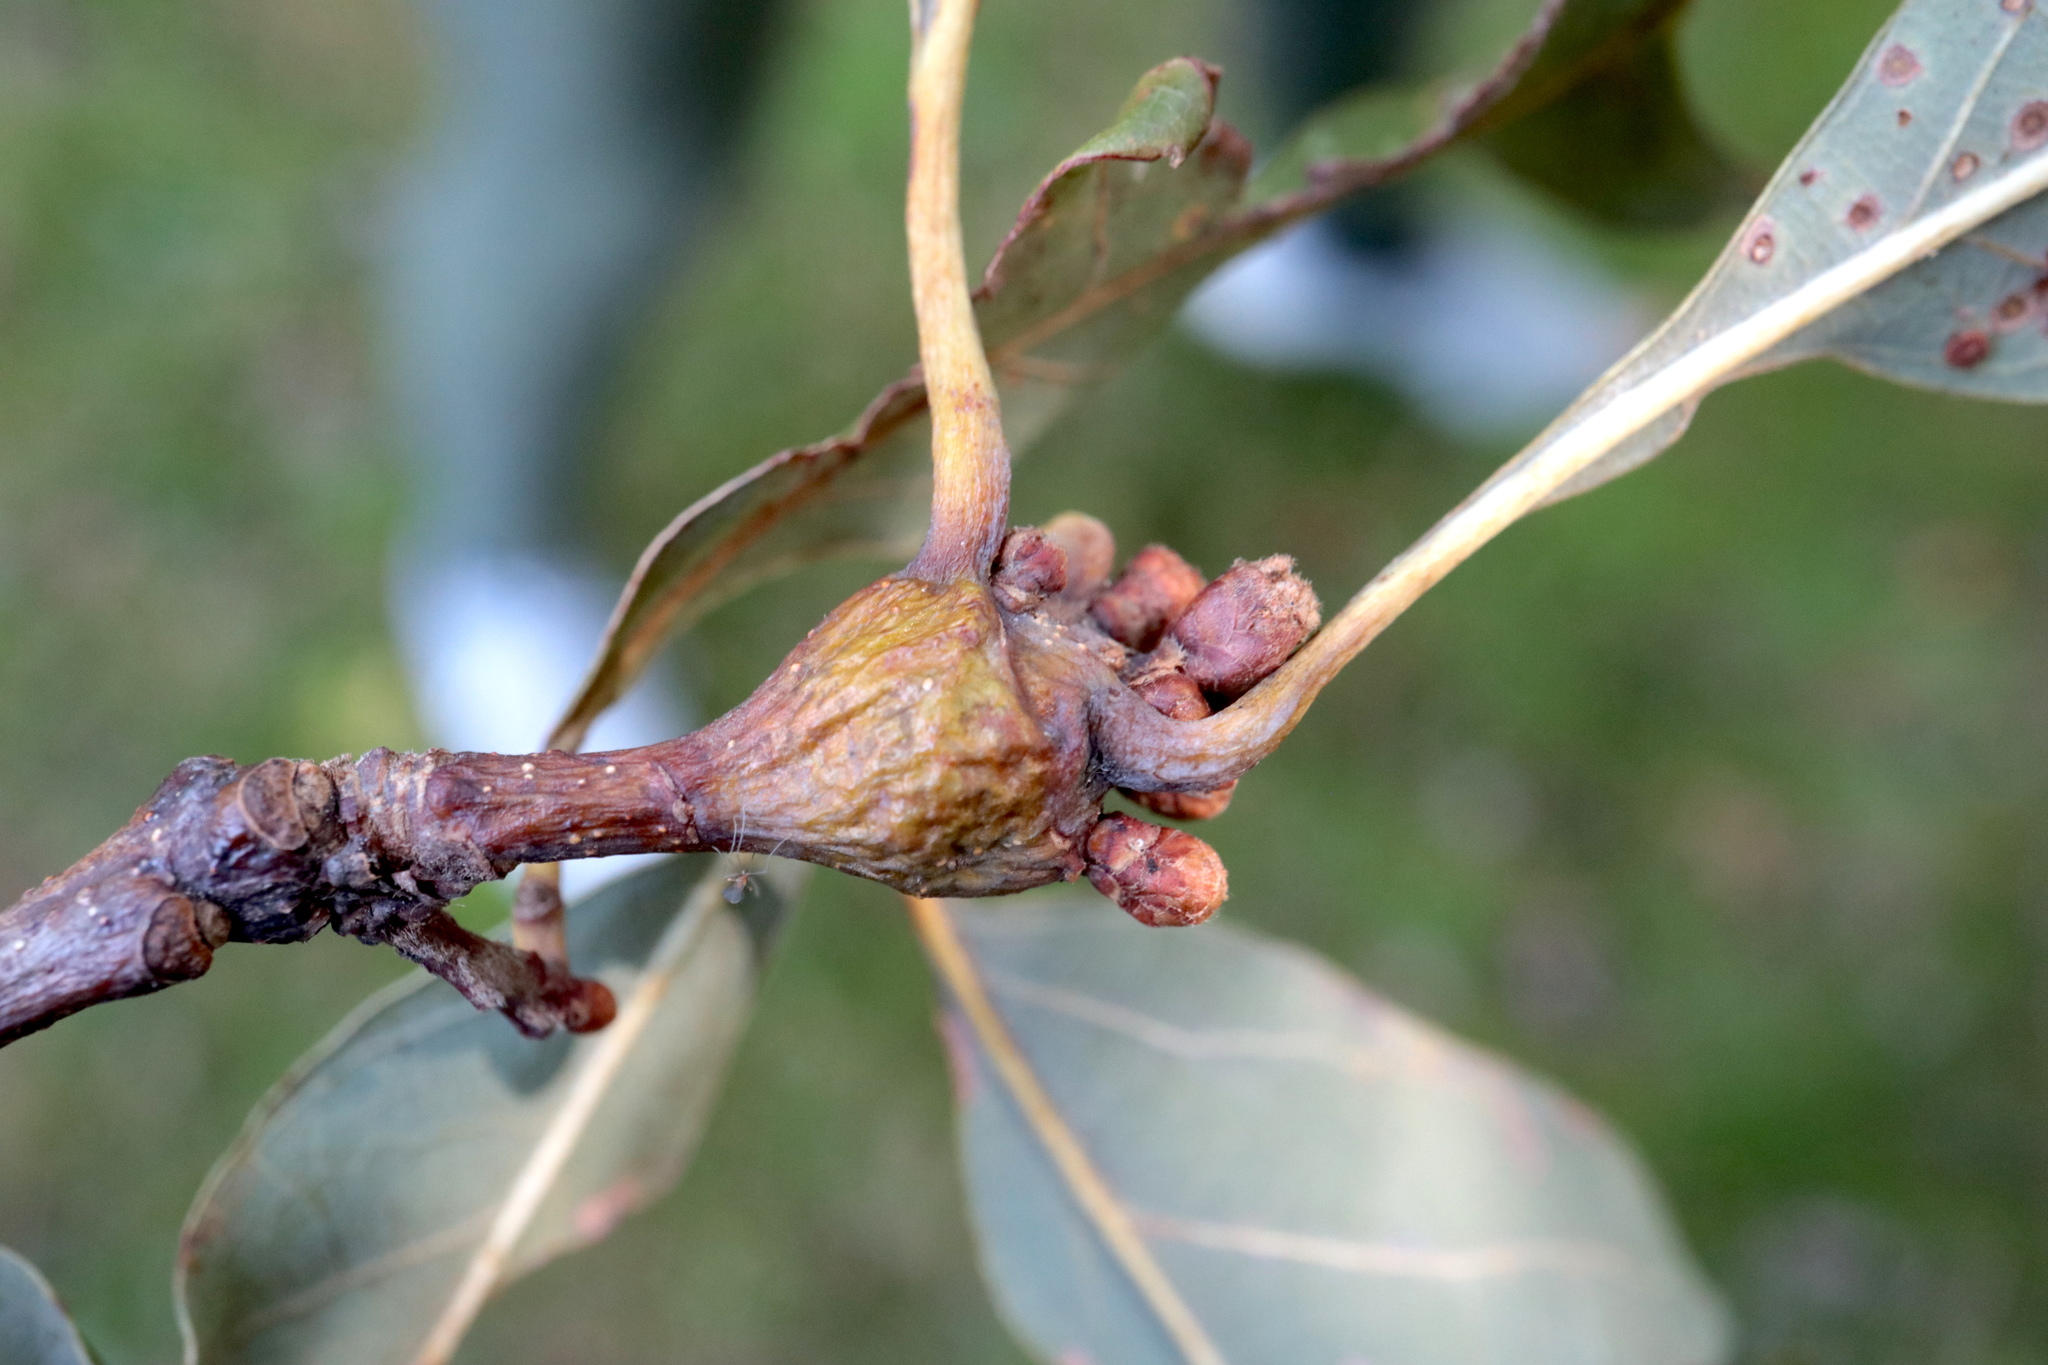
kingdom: Animalia
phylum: Arthropoda
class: Insecta
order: Hymenoptera
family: Cynipidae
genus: Callirhytis
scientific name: Callirhytis clavula
